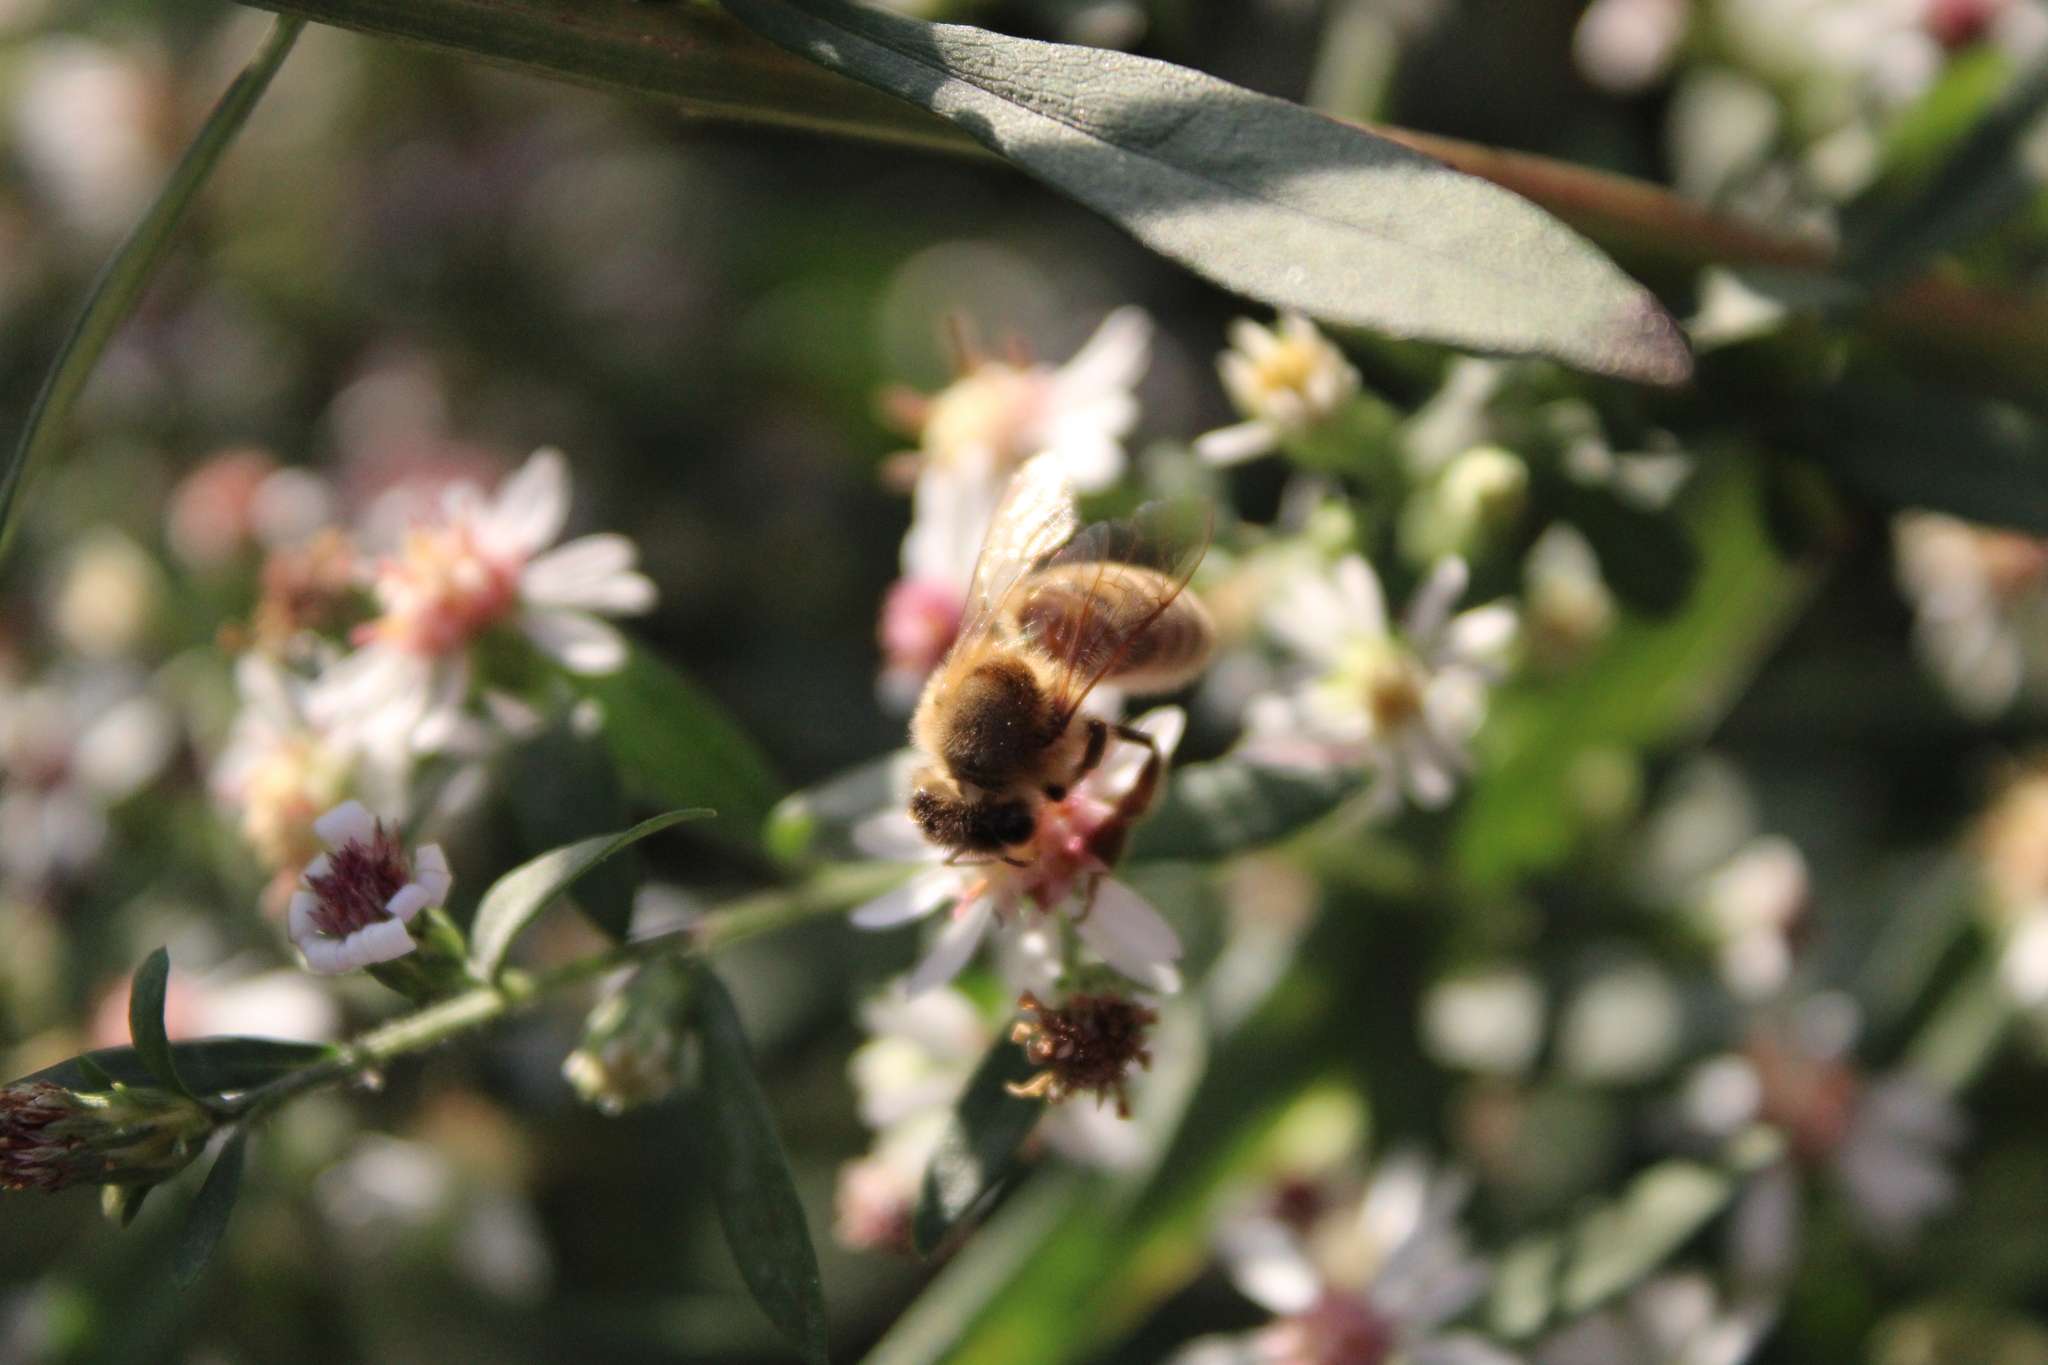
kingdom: Animalia
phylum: Arthropoda
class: Insecta
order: Hymenoptera
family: Apidae
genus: Apis
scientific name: Apis mellifera
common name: Honey bee
